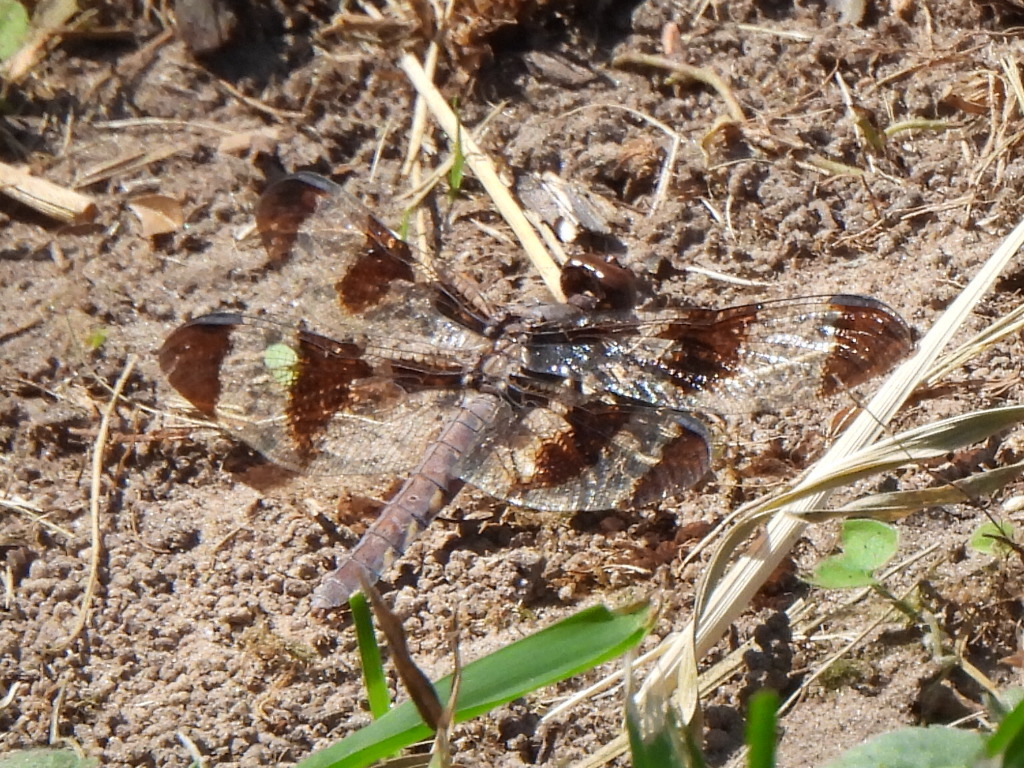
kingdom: Animalia
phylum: Arthropoda
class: Insecta
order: Odonata
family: Libellulidae
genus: Plathemis
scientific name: Plathemis lydia
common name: Common whitetail
